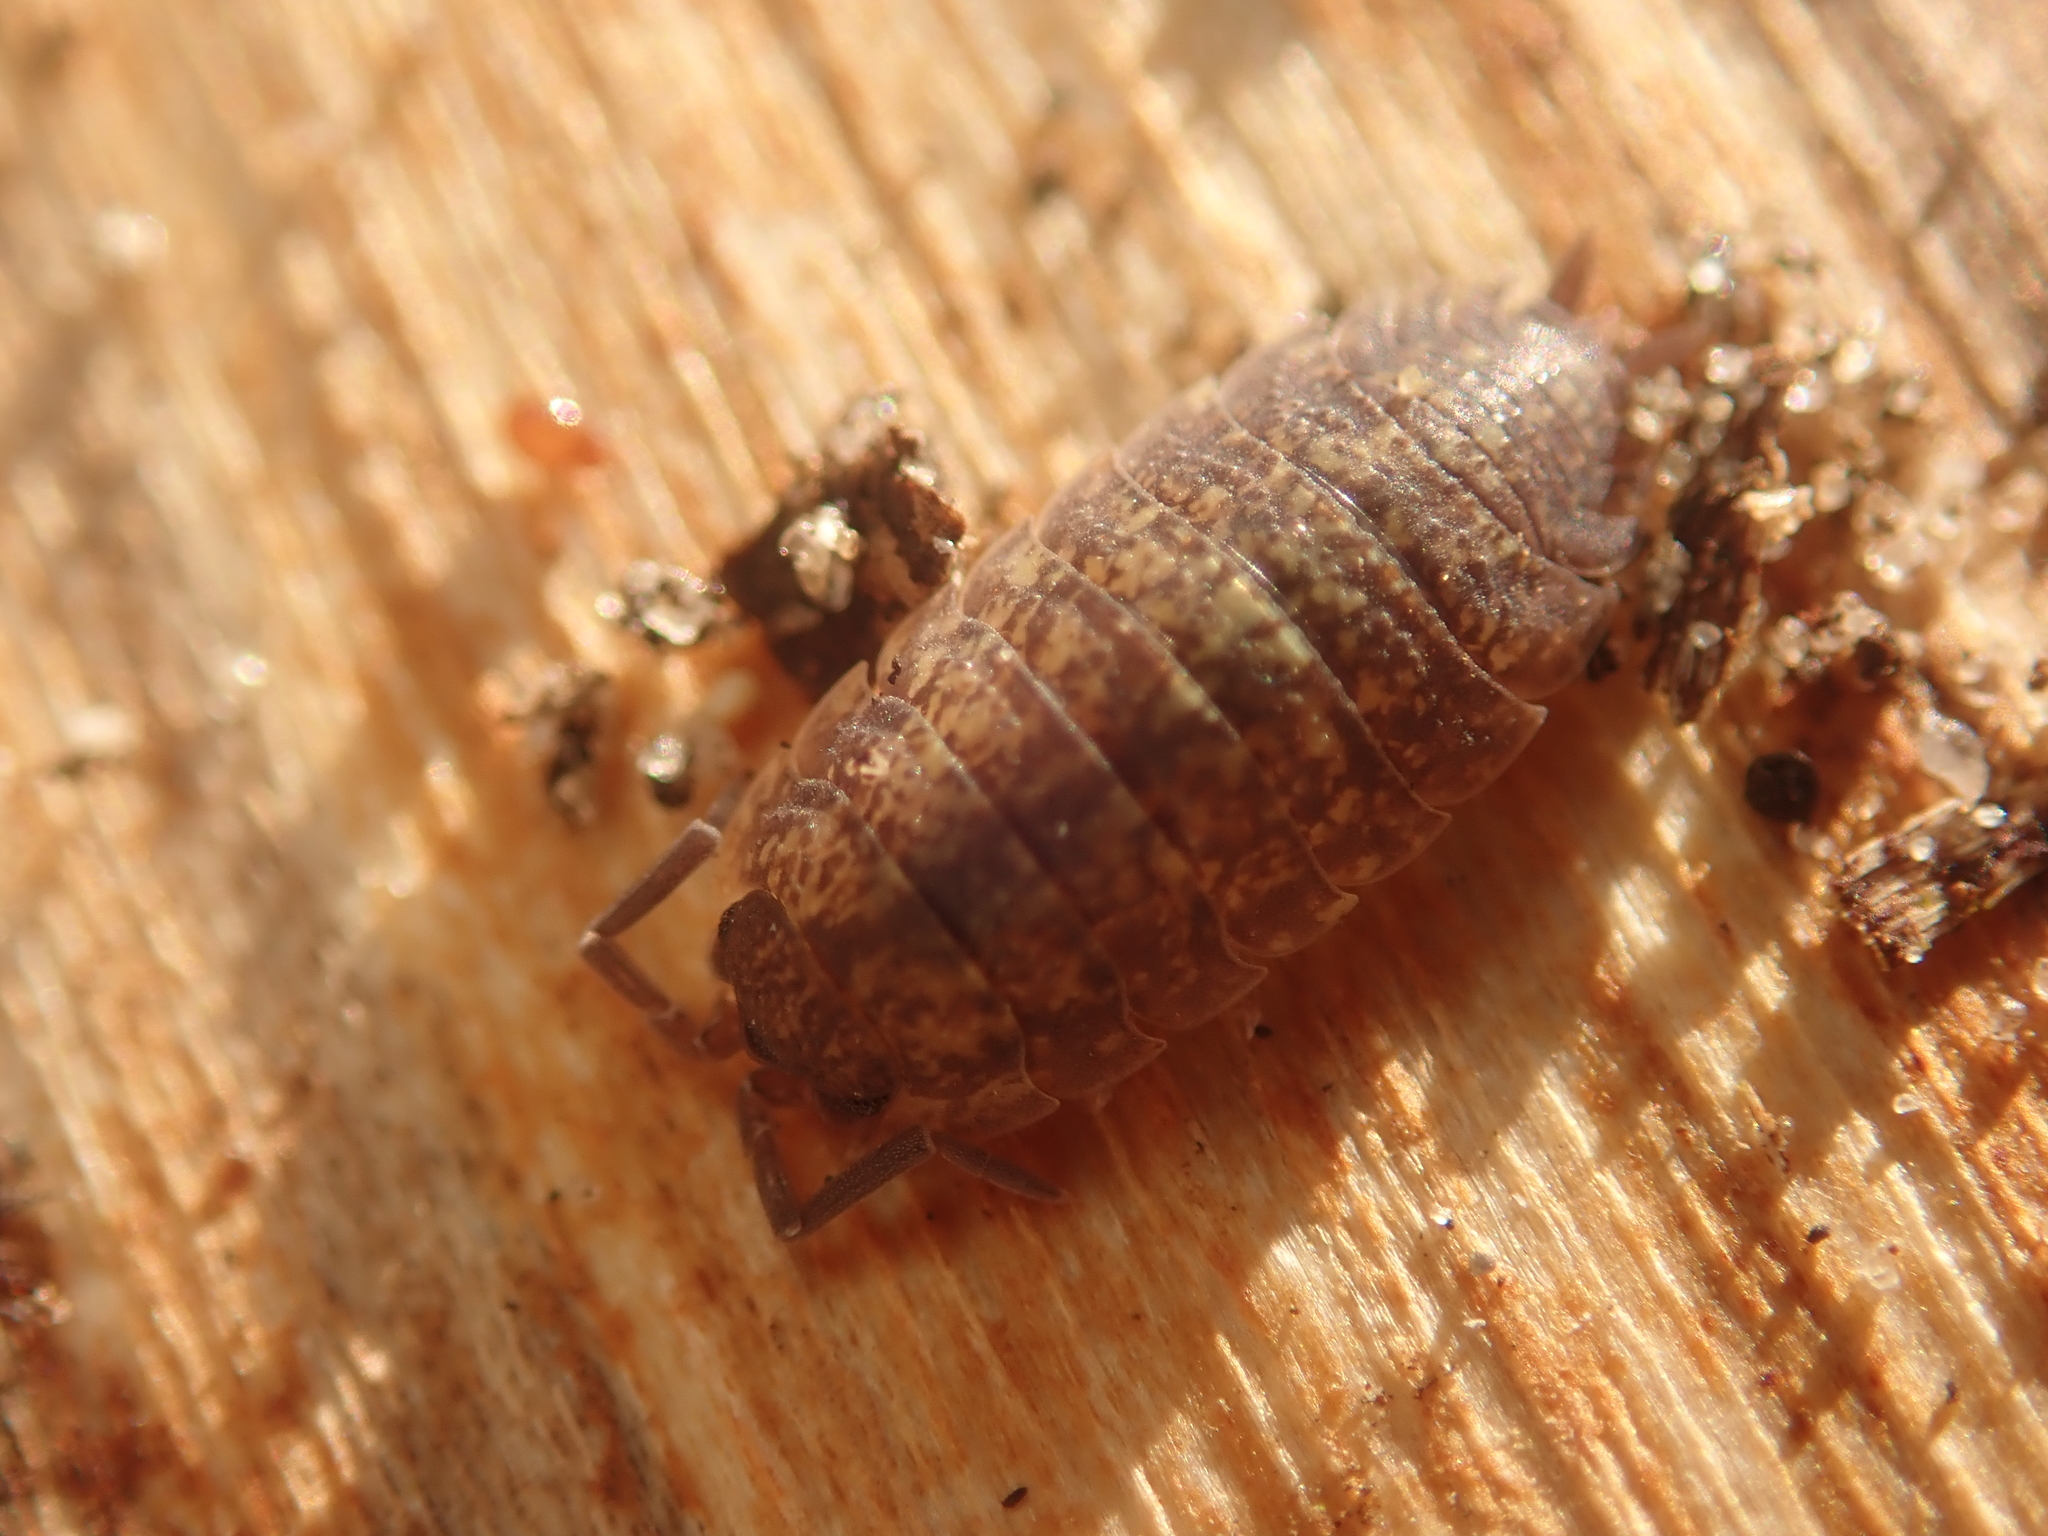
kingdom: Animalia
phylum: Arthropoda
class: Malacostraca
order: Isopoda
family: Porcellionidae
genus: Porcellio
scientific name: Porcellio scaber
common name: Common rough woodlouse
